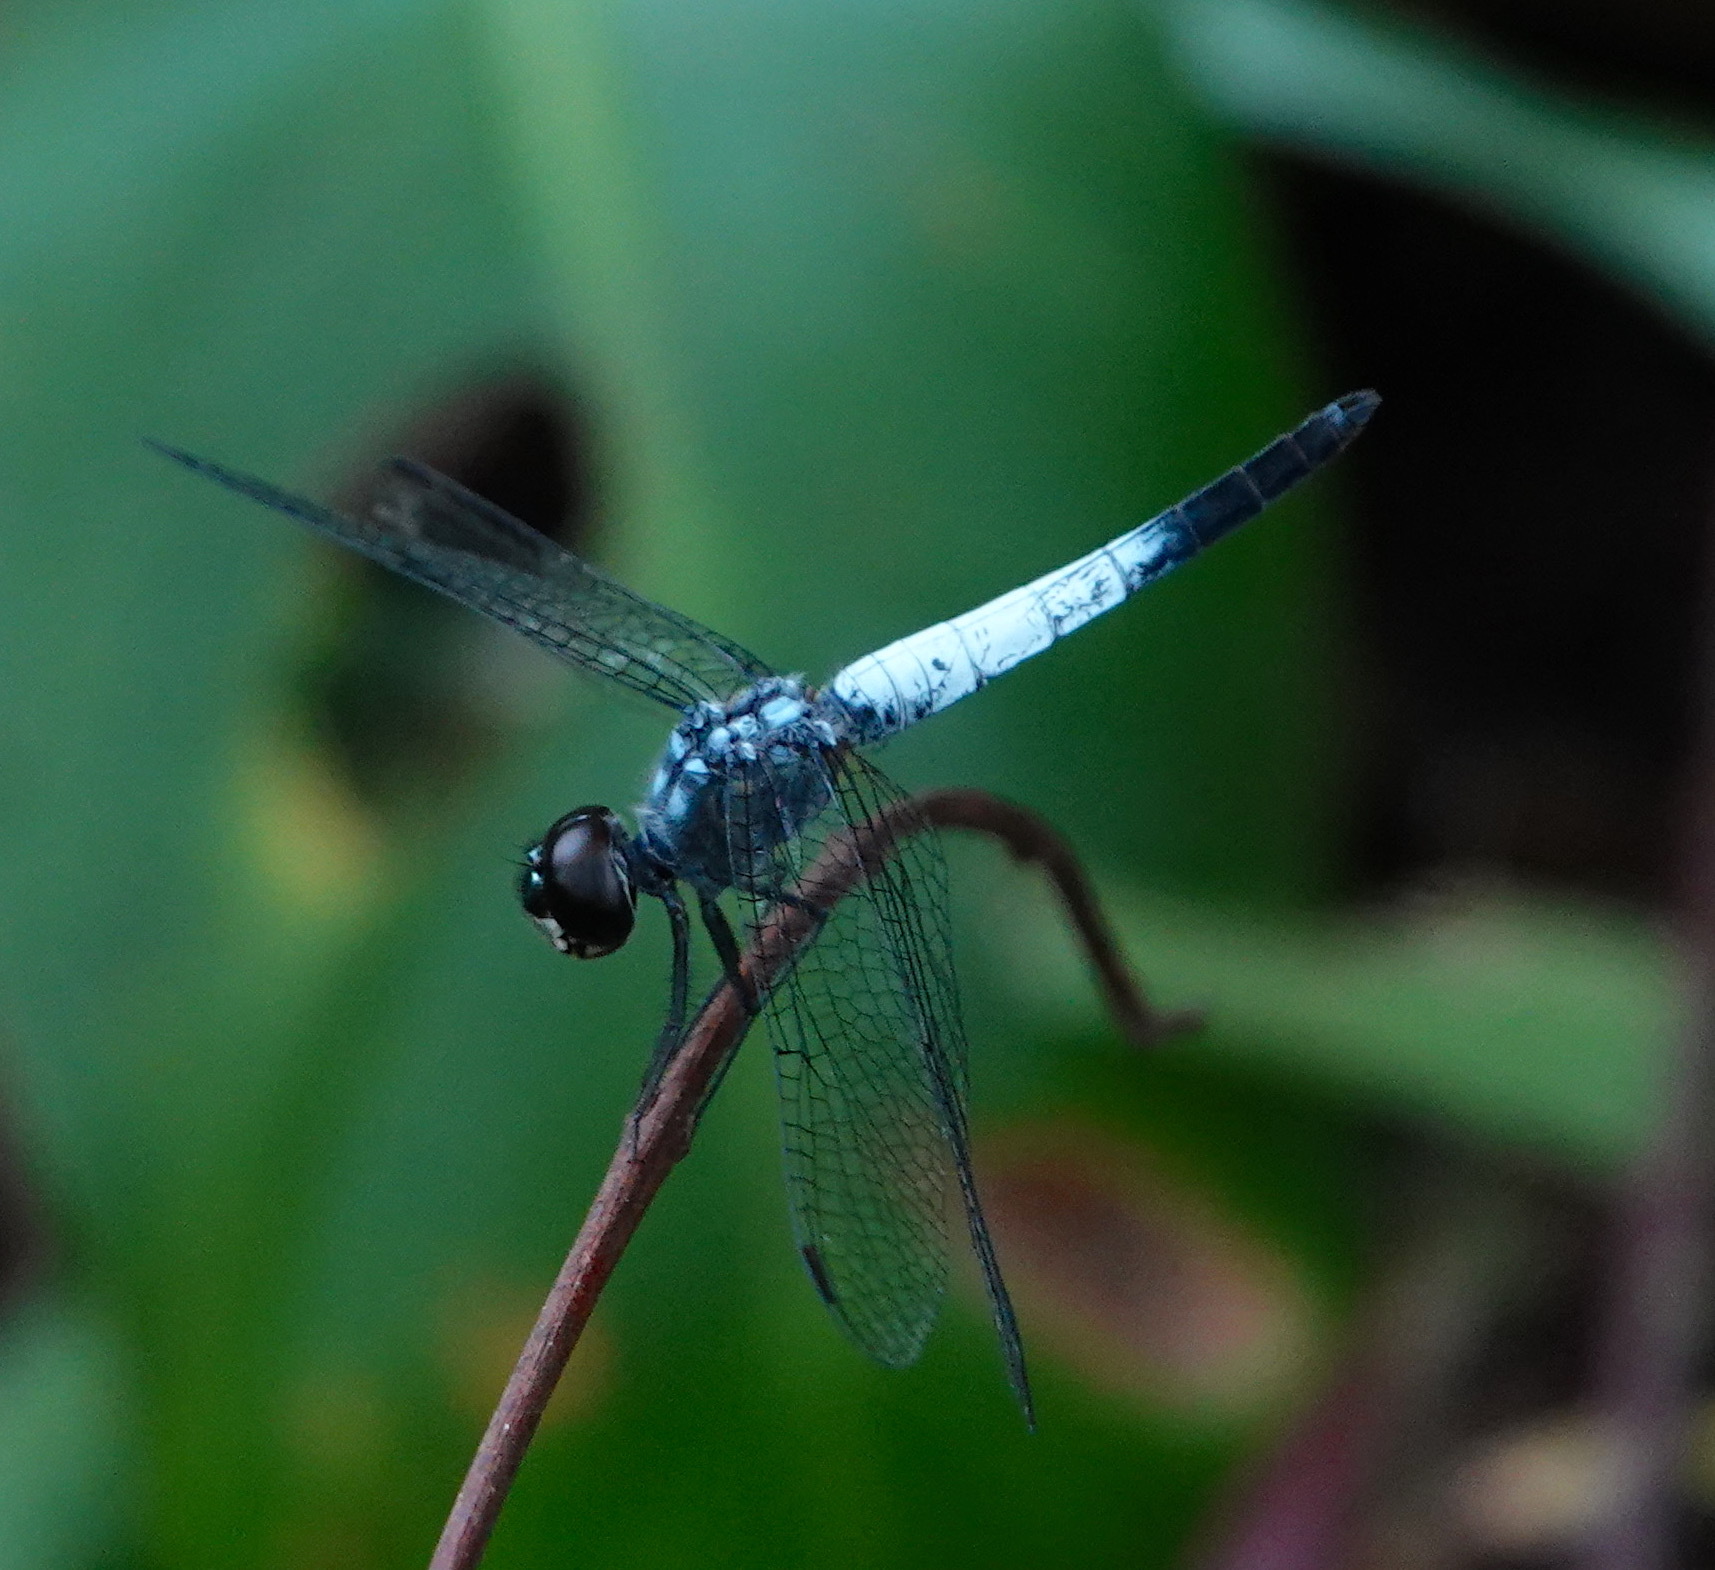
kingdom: Animalia
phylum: Arthropoda
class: Insecta
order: Odonata
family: Libellulidae
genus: Brachydiplax
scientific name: Brachydiplax farinosa
